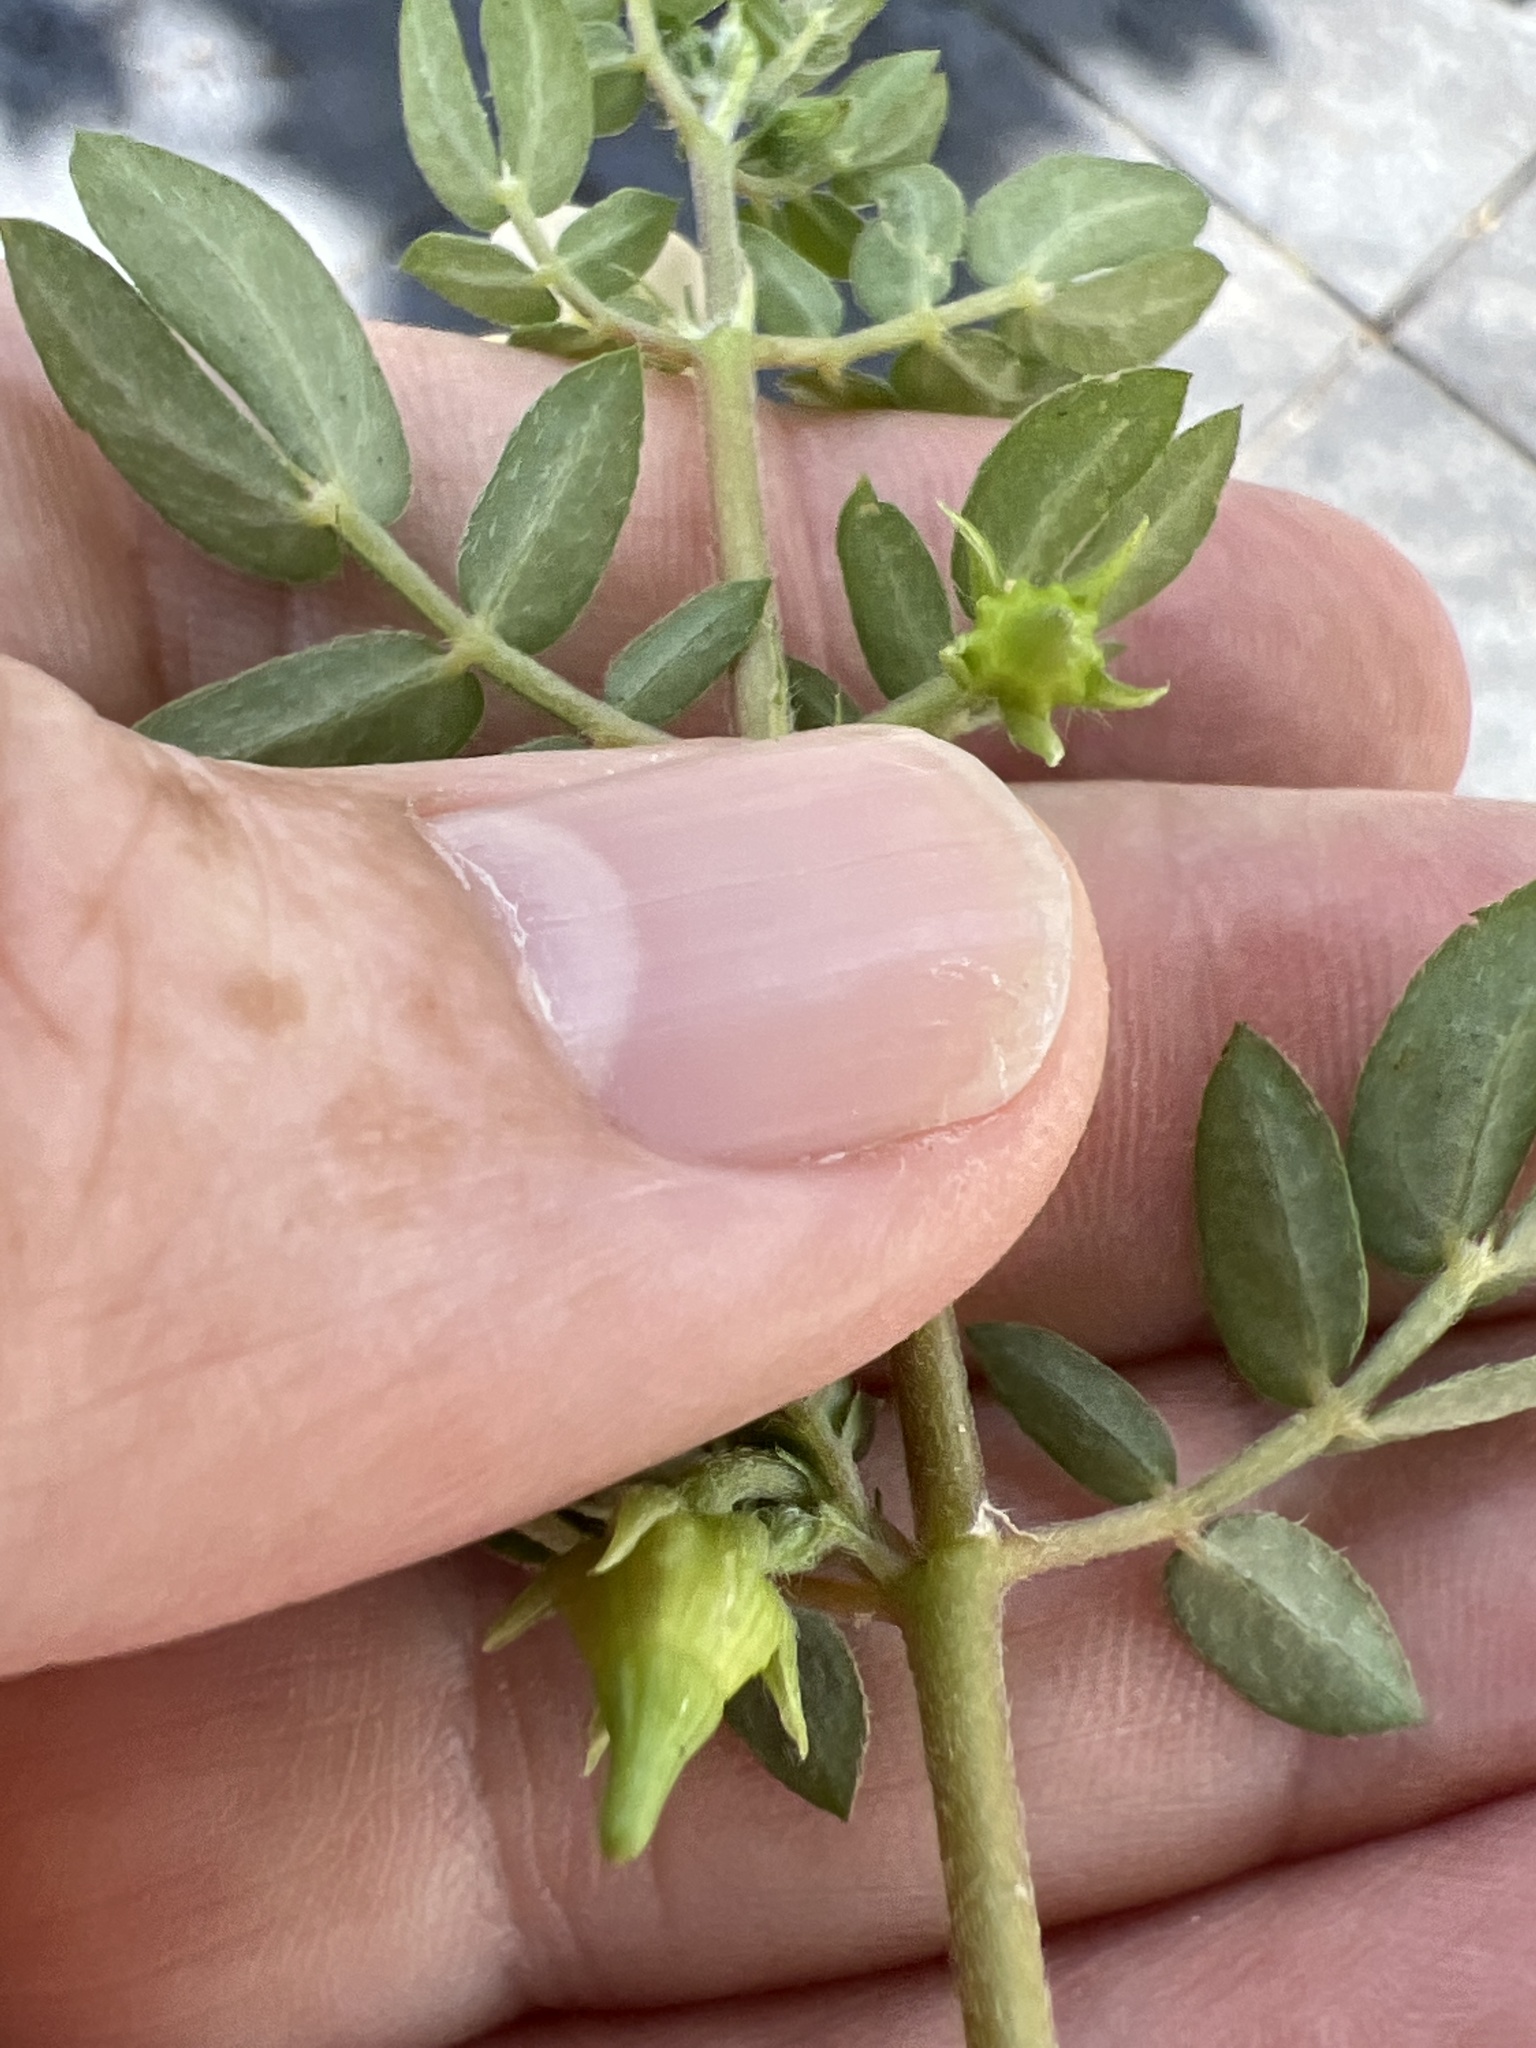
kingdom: Plantae
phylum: Tracheophyta
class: Magnoliopsida
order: Zygophyllales
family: Zygophyllaceae
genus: Kallstroemia
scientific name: Kallstroemia maxima
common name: Big caltropa
